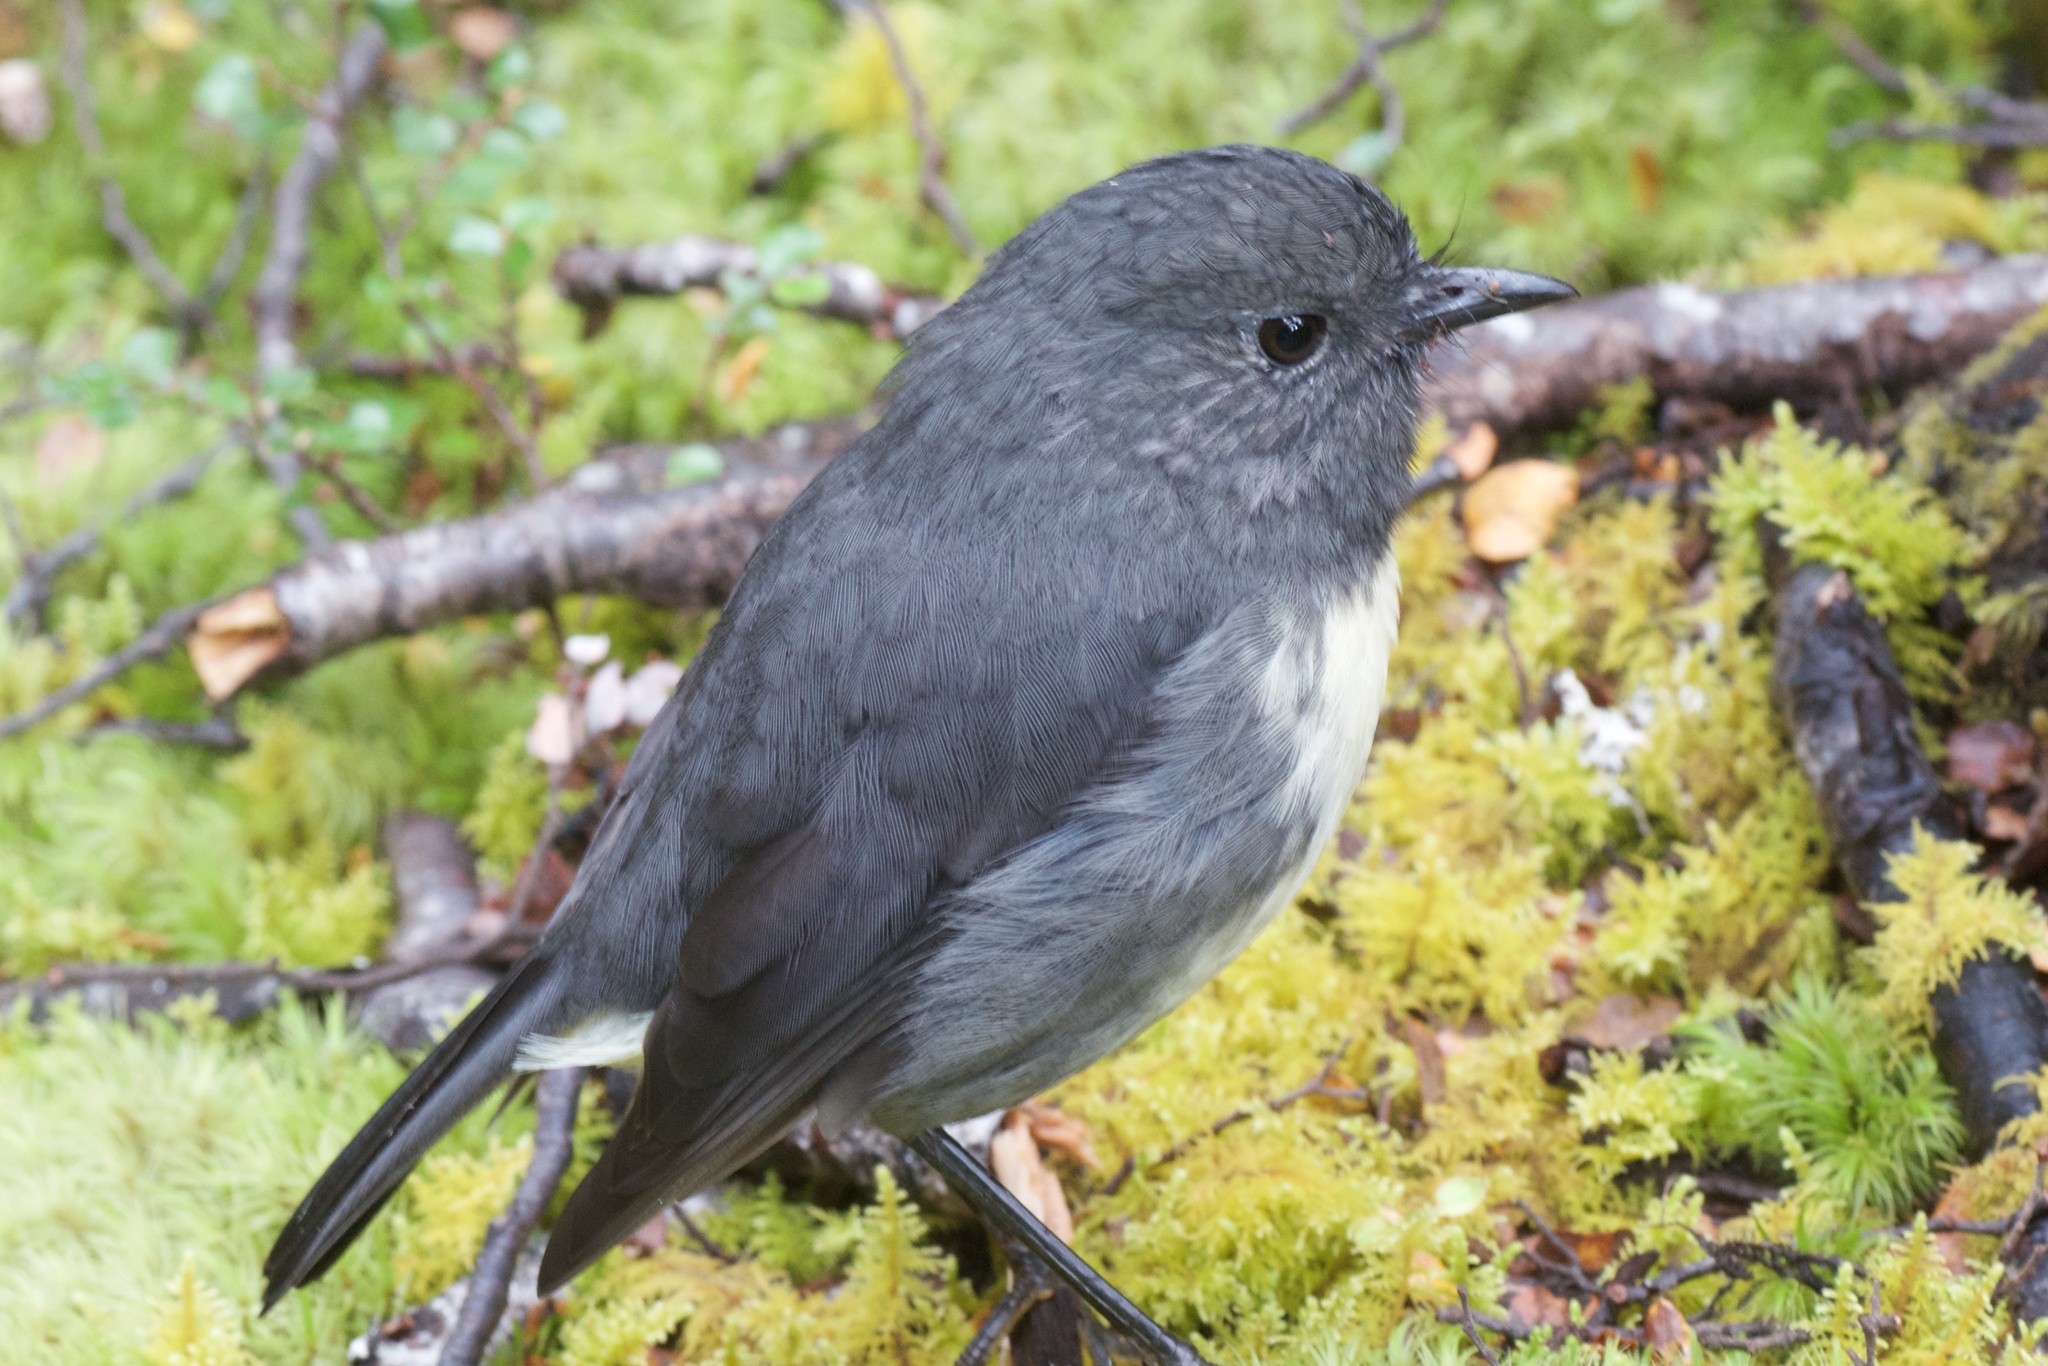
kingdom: Animalia
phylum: Chordata
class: Aves
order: Passeriformes
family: Petroicidae
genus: Petroica
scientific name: Petroica australis
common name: New zealand robin
